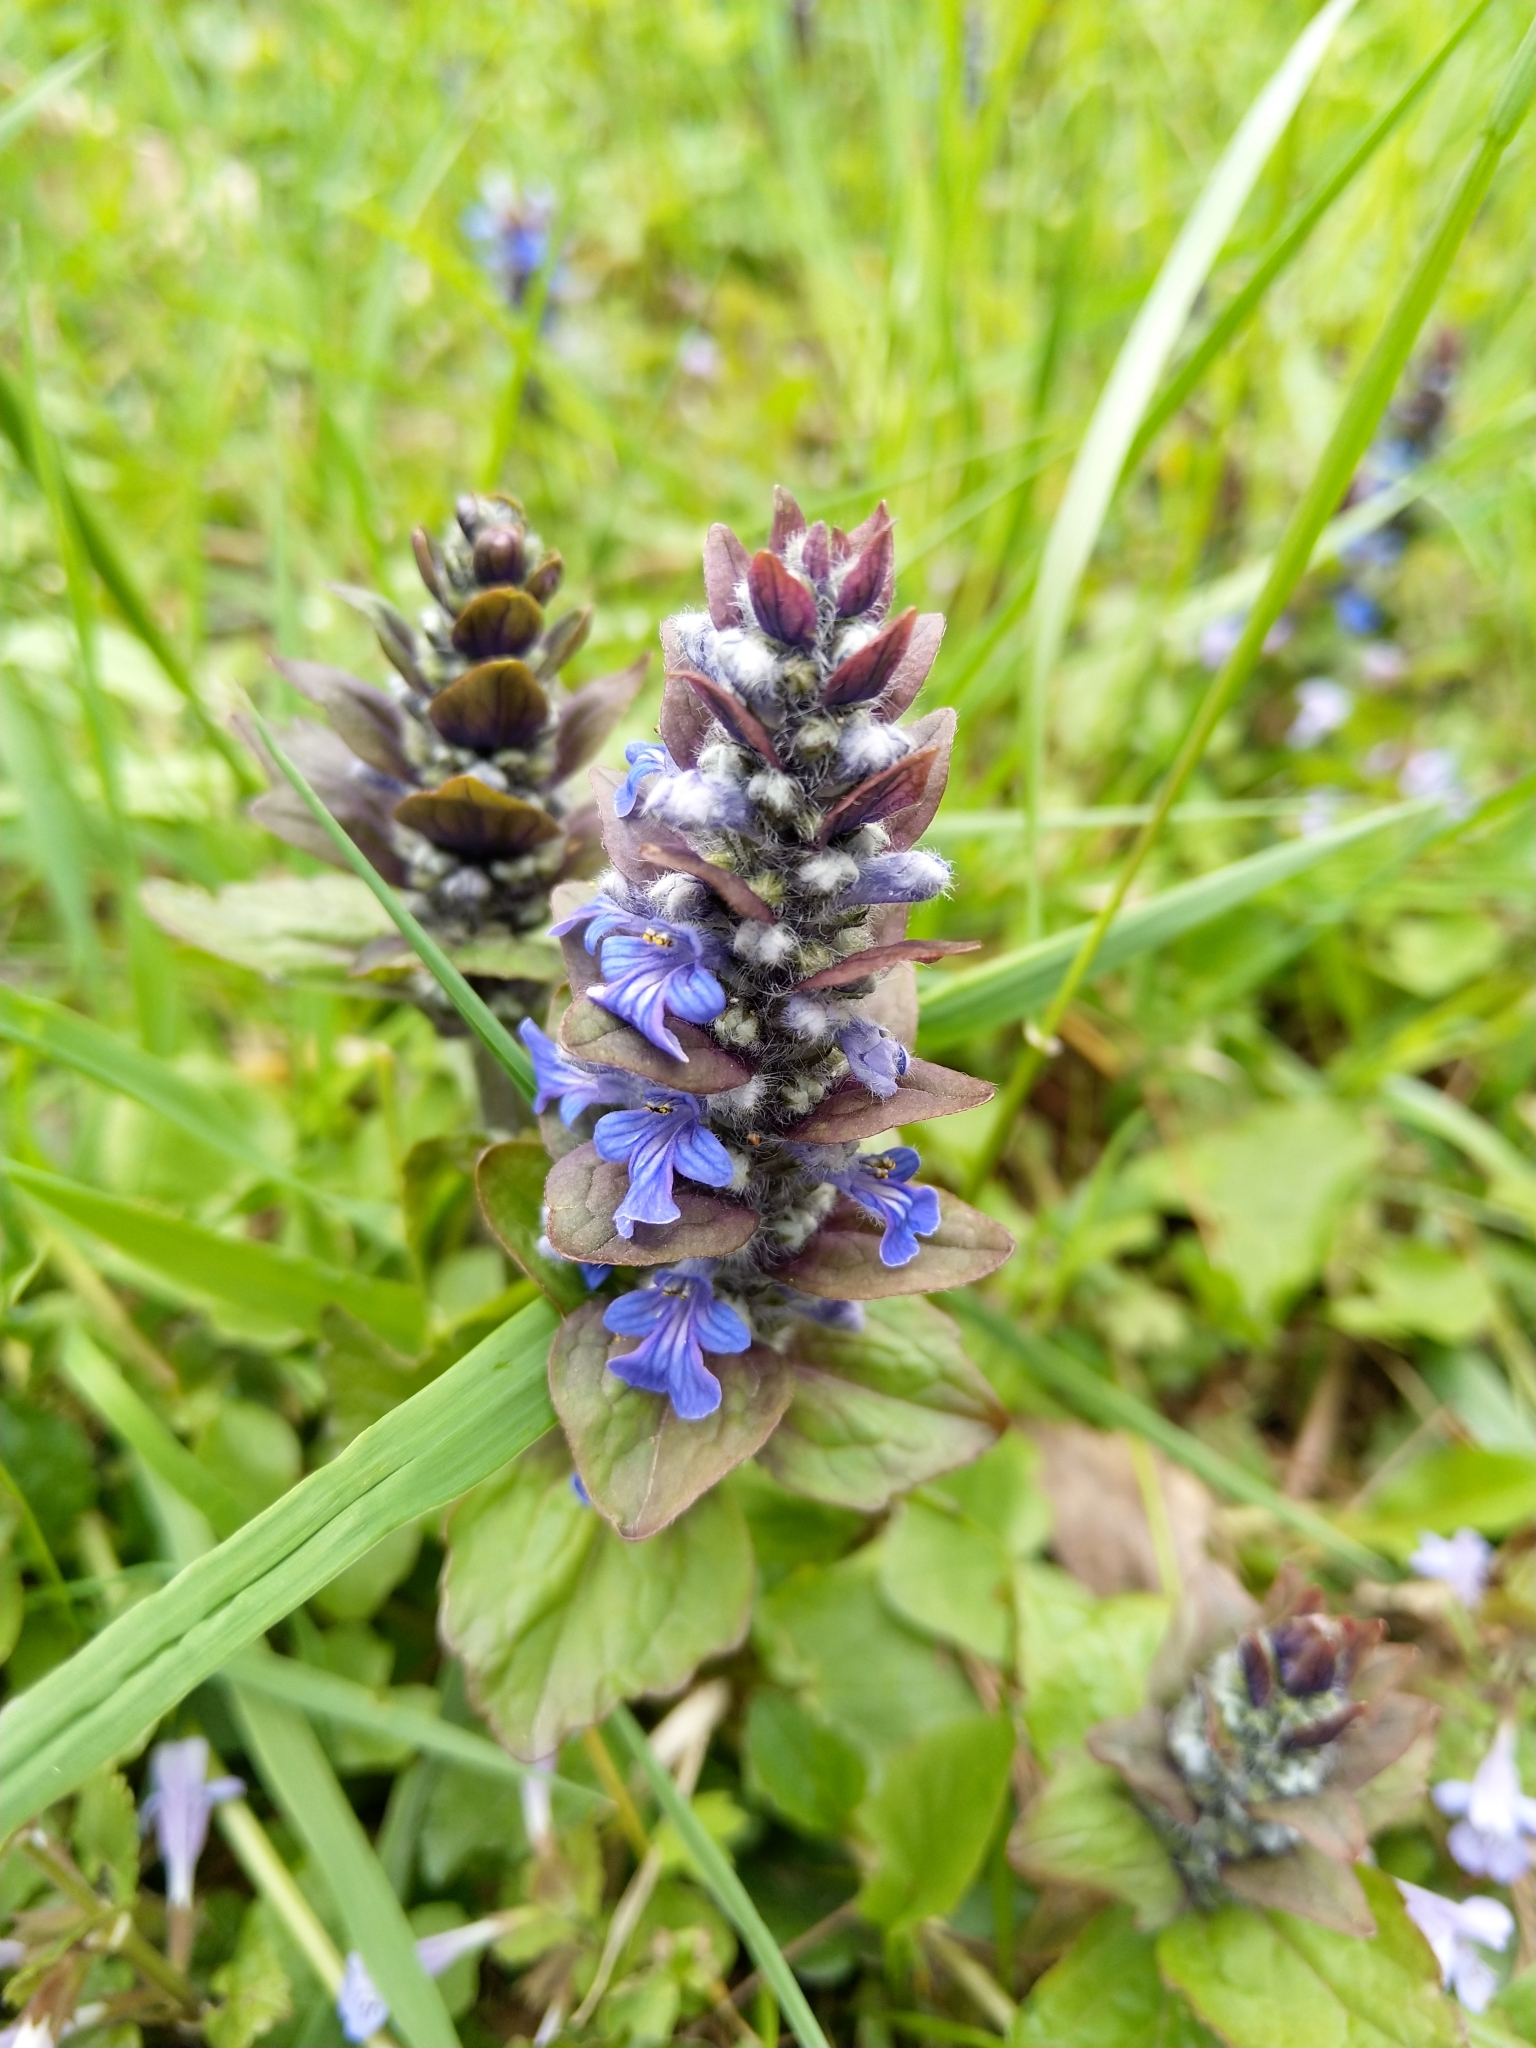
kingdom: Plantae
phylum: Tracheophyta
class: Magnoliopsida
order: Lamiales
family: Lamiaceae
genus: Ajuga
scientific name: Ajuga reptans
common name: Bugle
